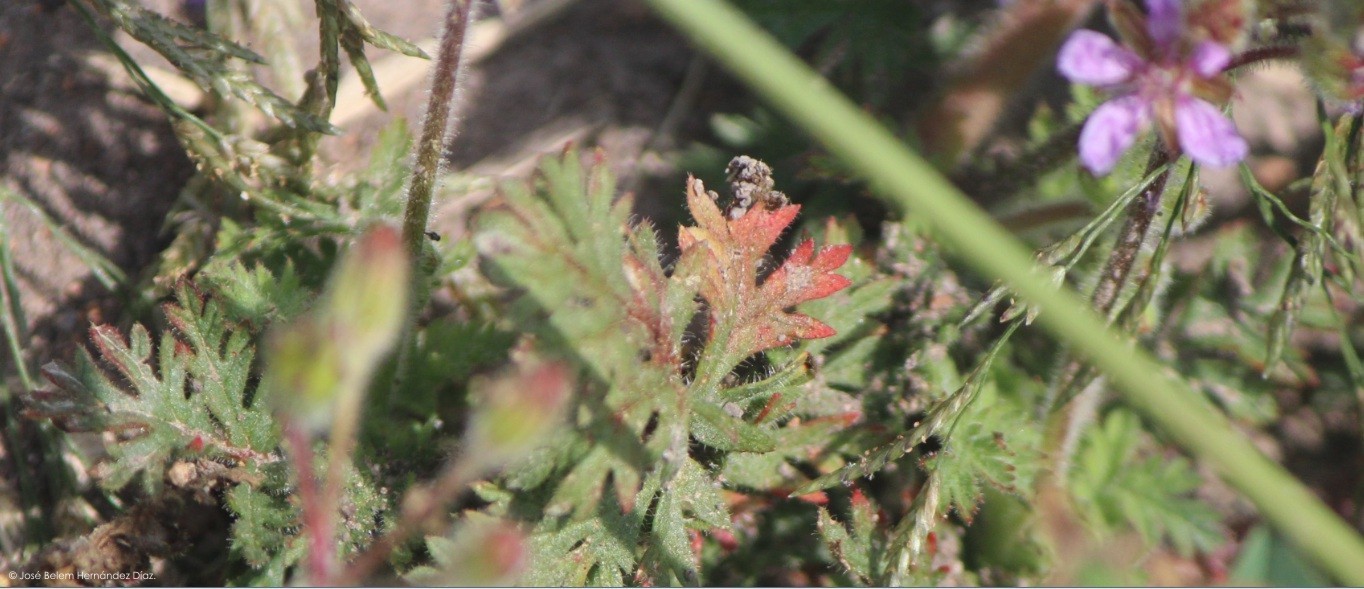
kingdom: Plantae
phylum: Tracheophyta
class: Magnoliopsida
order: Geraniales
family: Geraniaceae
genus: Erodium
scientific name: Erodium cicutarium
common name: Common stork's-bill
